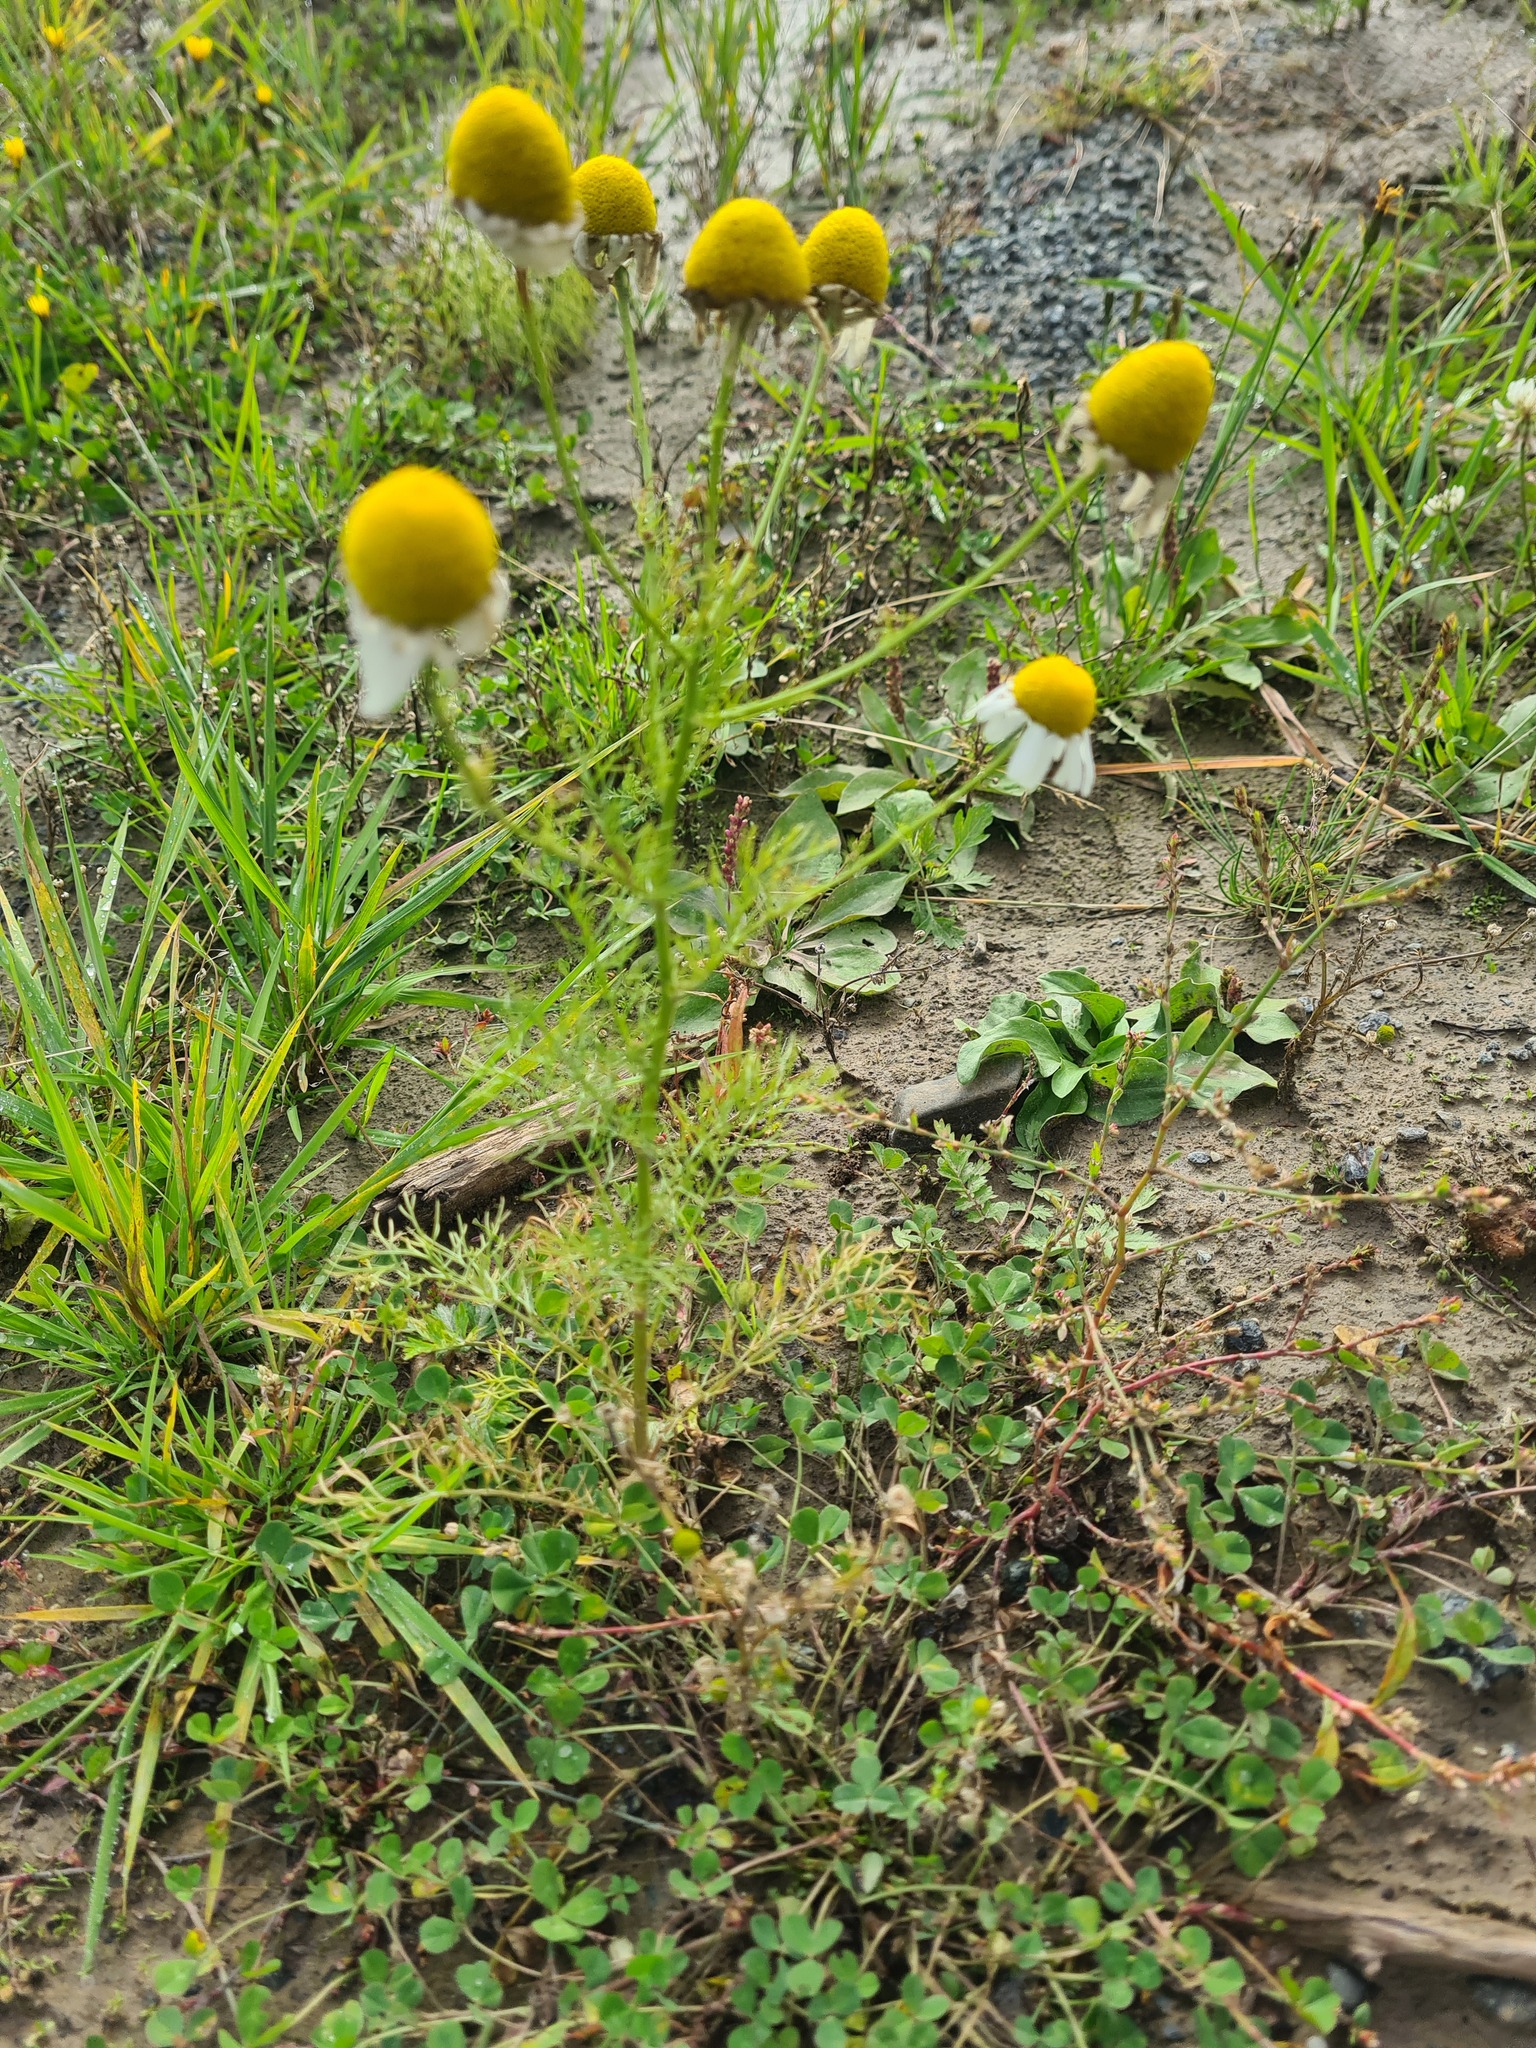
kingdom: Plantae
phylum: Tracheophyta
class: Magnoliopsida
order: Asterales
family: Asteraceae
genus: Tripleurospermum
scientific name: Tripleurospermum inodorum
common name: Scentless mayweed
